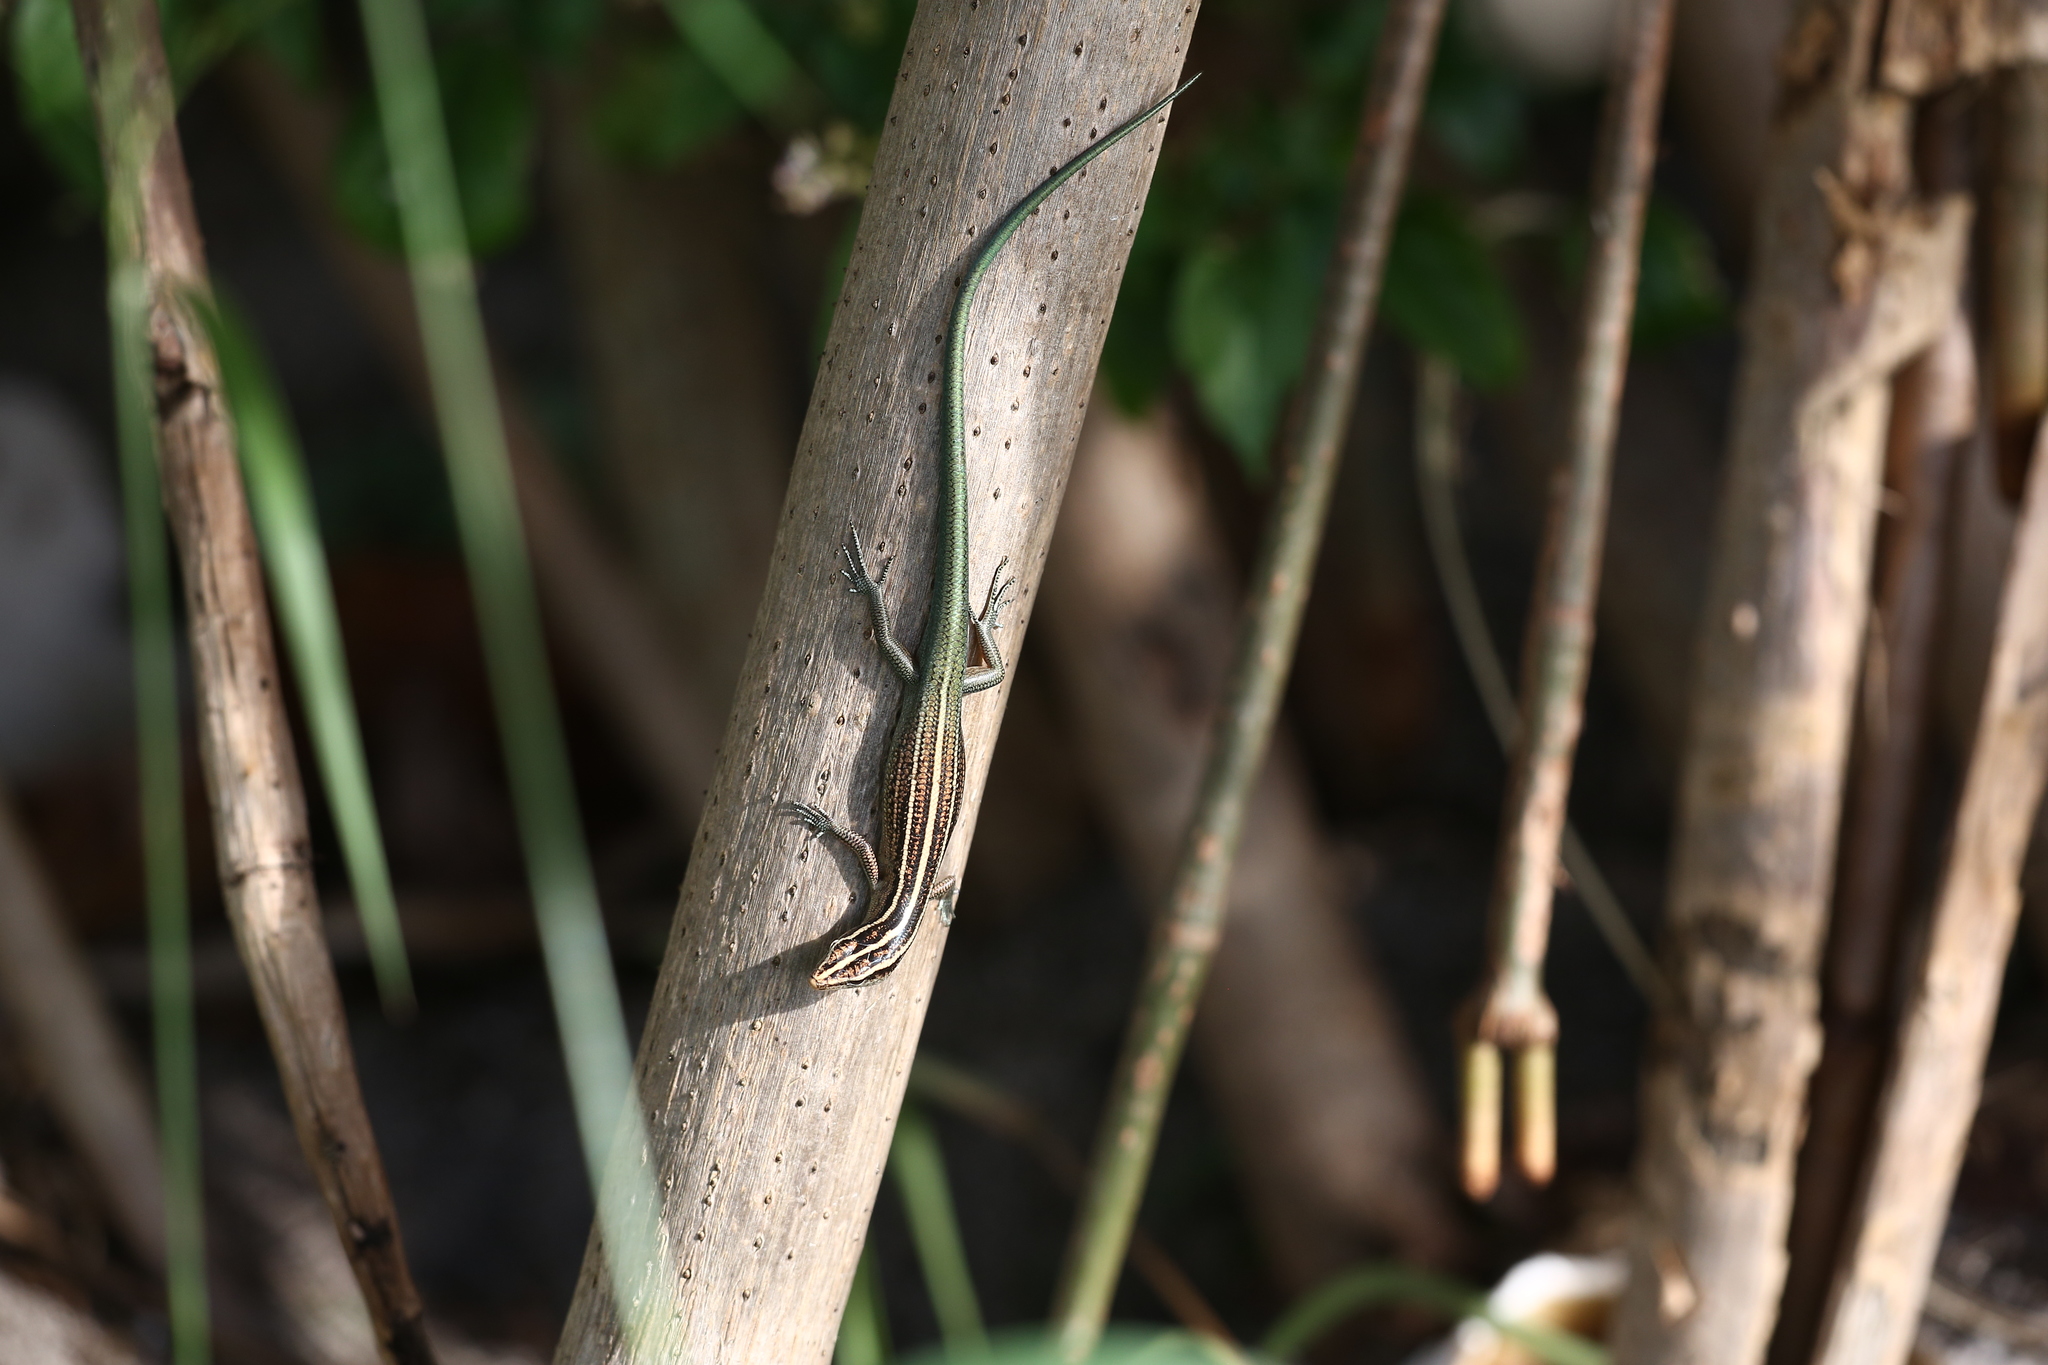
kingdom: Animalia
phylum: Chordata
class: Squamata
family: Scincidae
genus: Emoia
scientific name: Emoia cyanura
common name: Copper-tailed skink
